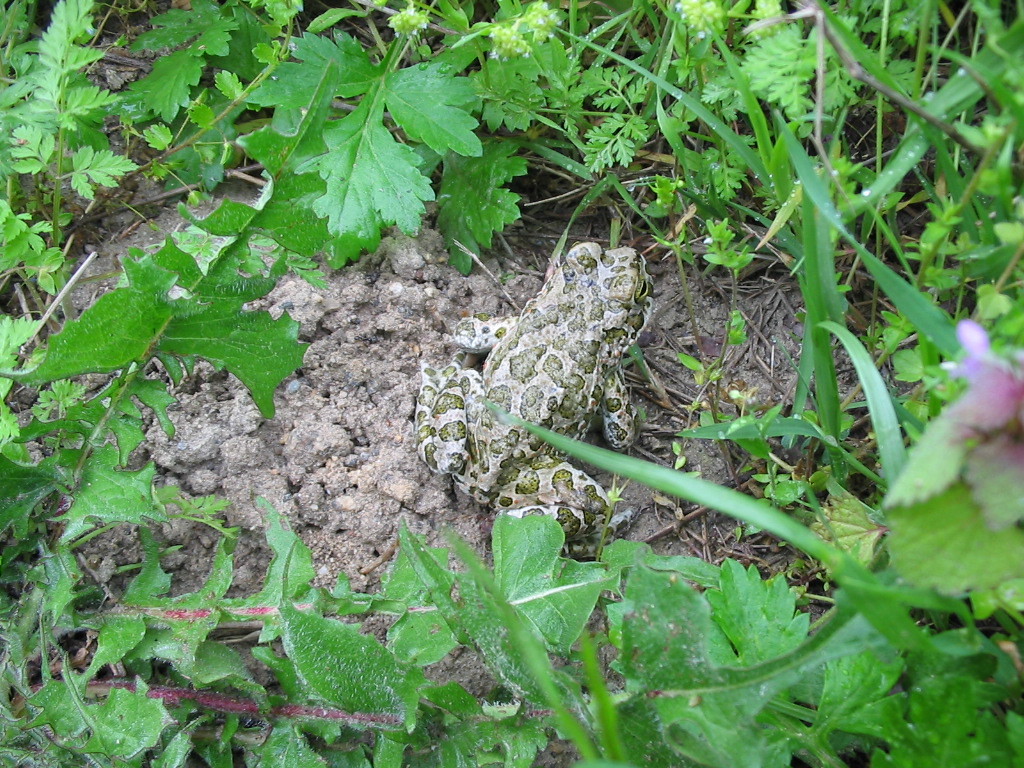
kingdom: Animalia
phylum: Chordata
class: Amphibia
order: Anura
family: Bufonidae
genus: Bufotes
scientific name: Bufotes viridis
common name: European green toad
